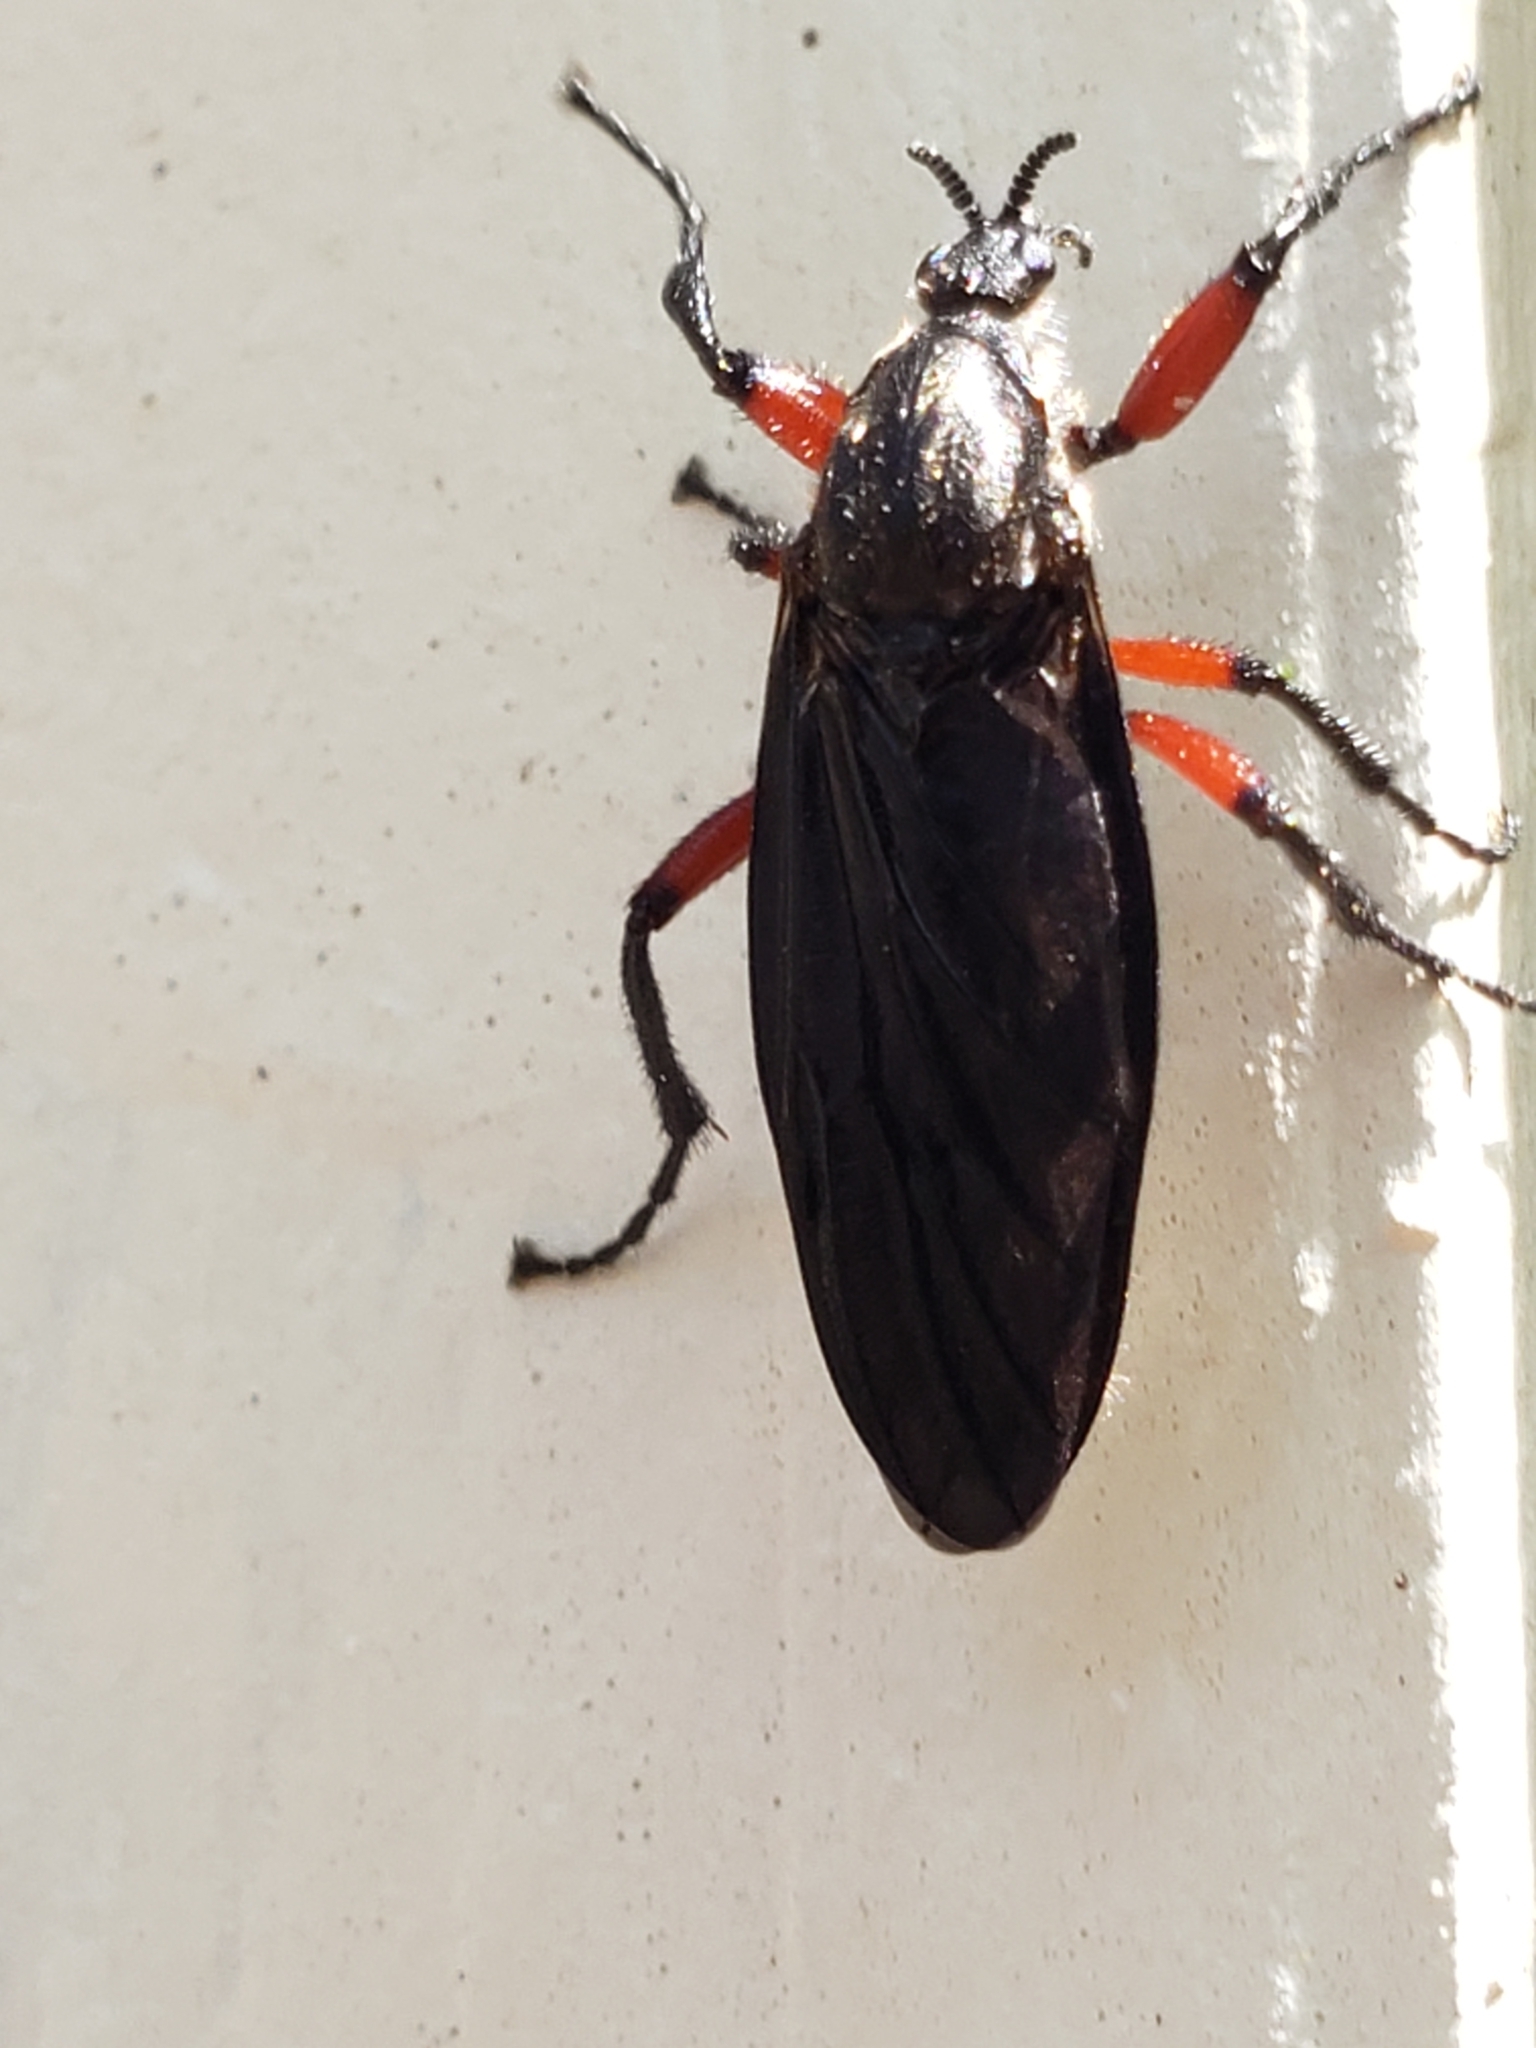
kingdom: Animalia
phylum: Arthropoda
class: Insecta
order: Diptera
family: Bibionidae
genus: Bibio
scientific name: Bibio femoratus
